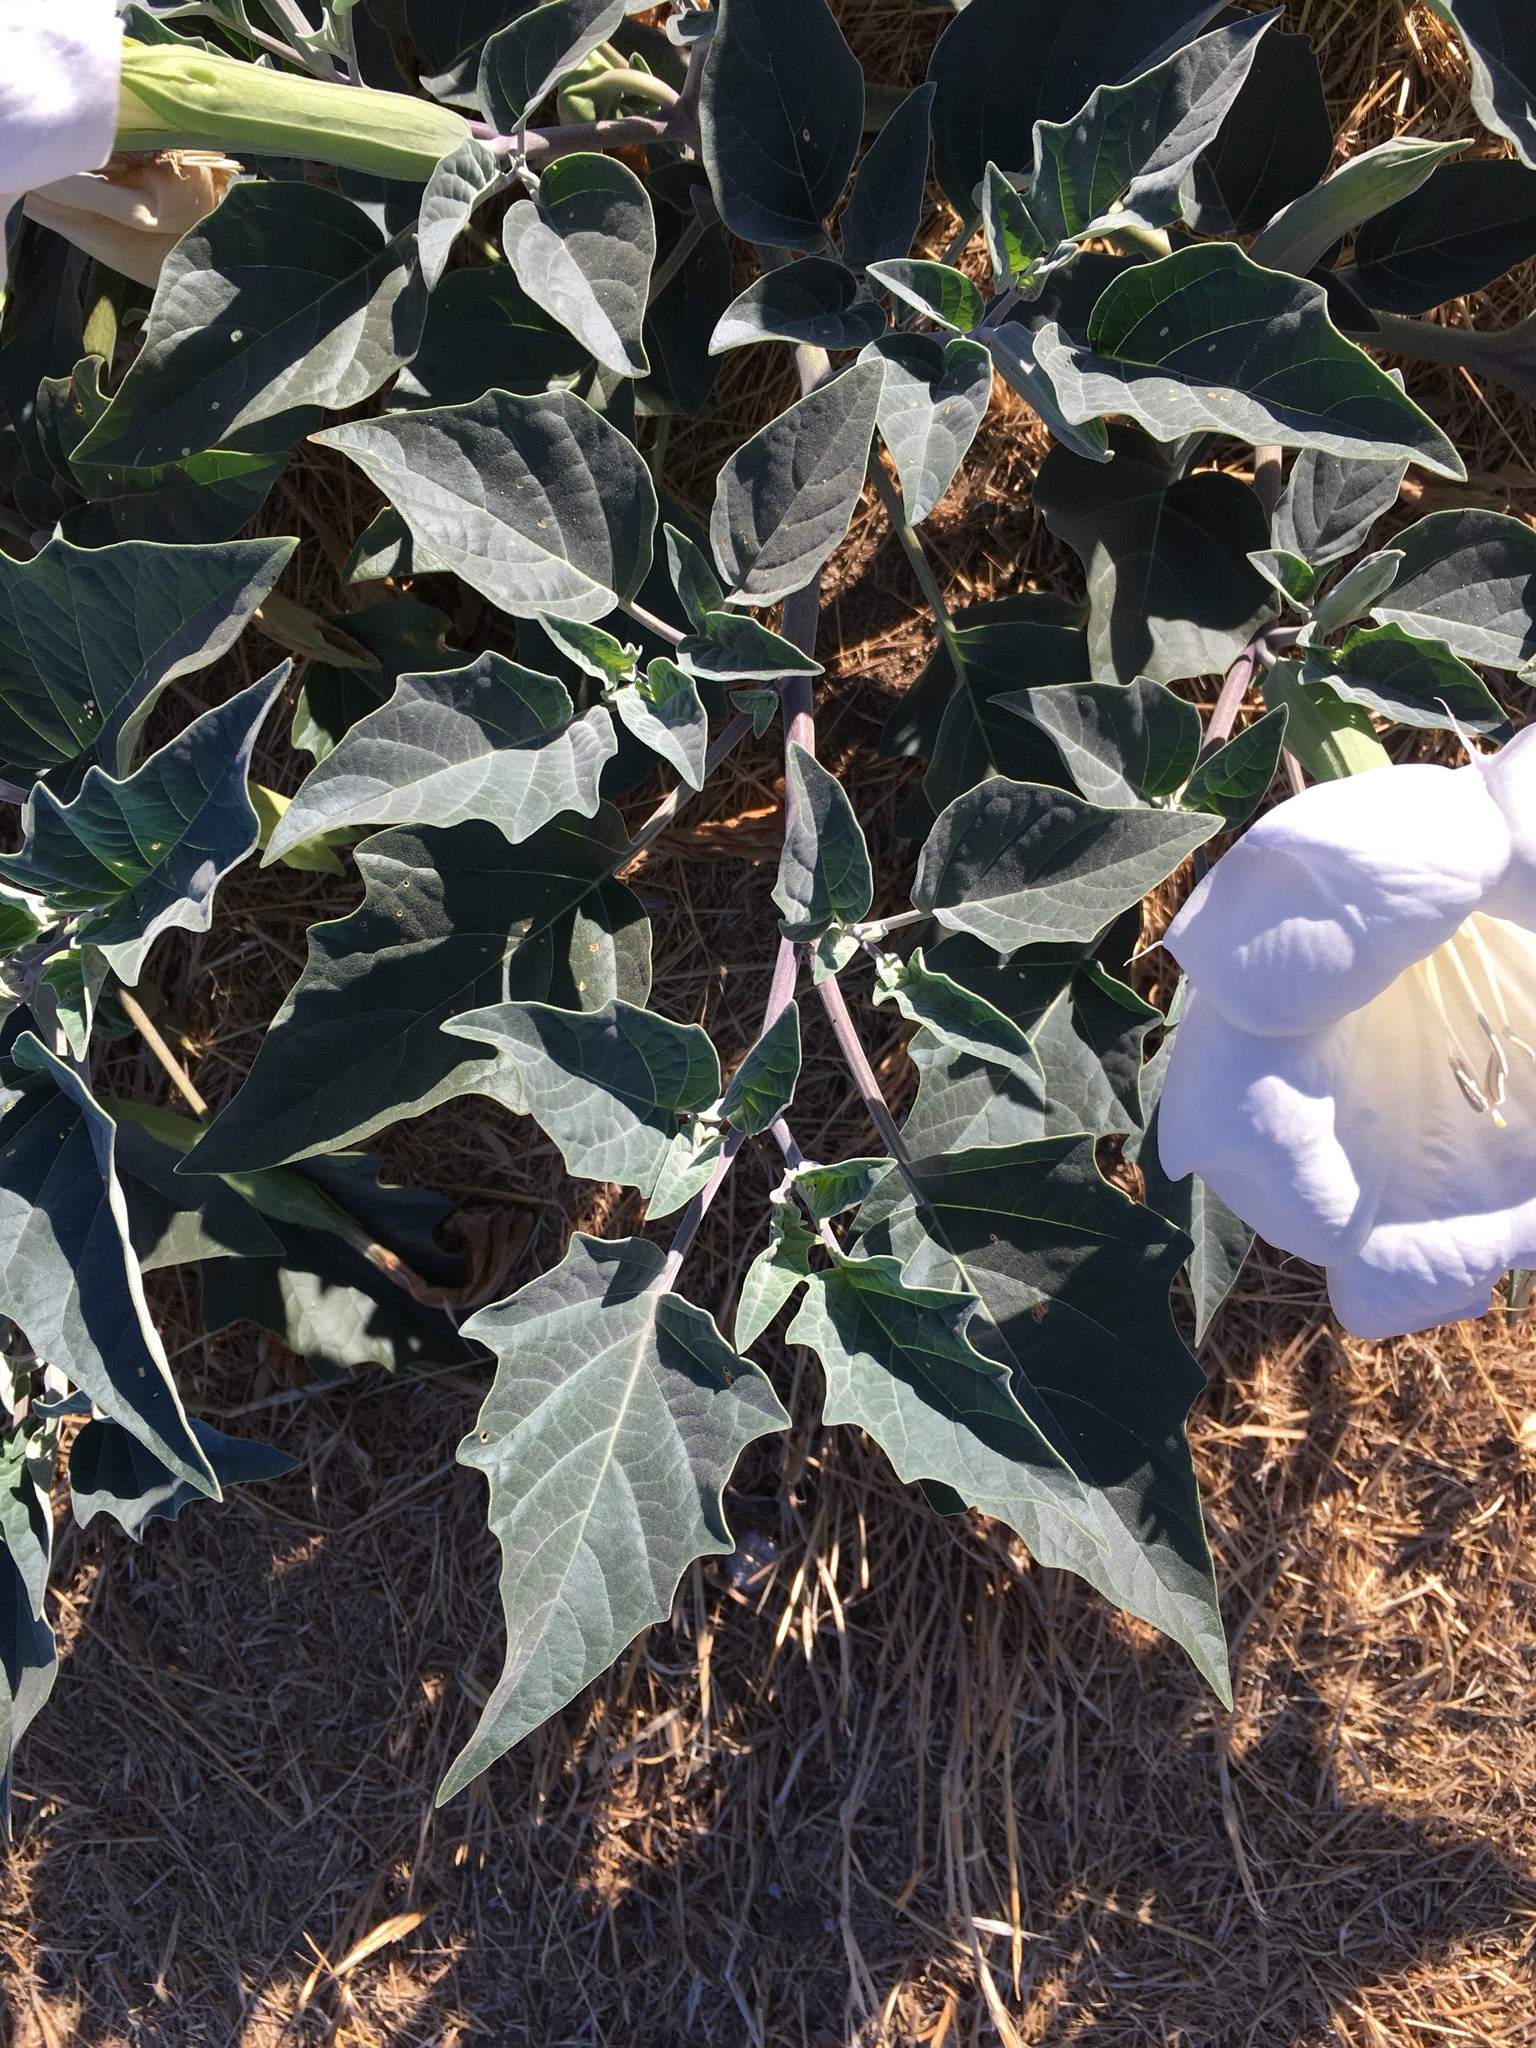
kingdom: Plantae
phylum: Tracheophyta
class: Magnoliopsida
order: Solanales
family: Solanaceae
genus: Datura
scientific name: Datura wrightii
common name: Sacred thorn-apple
